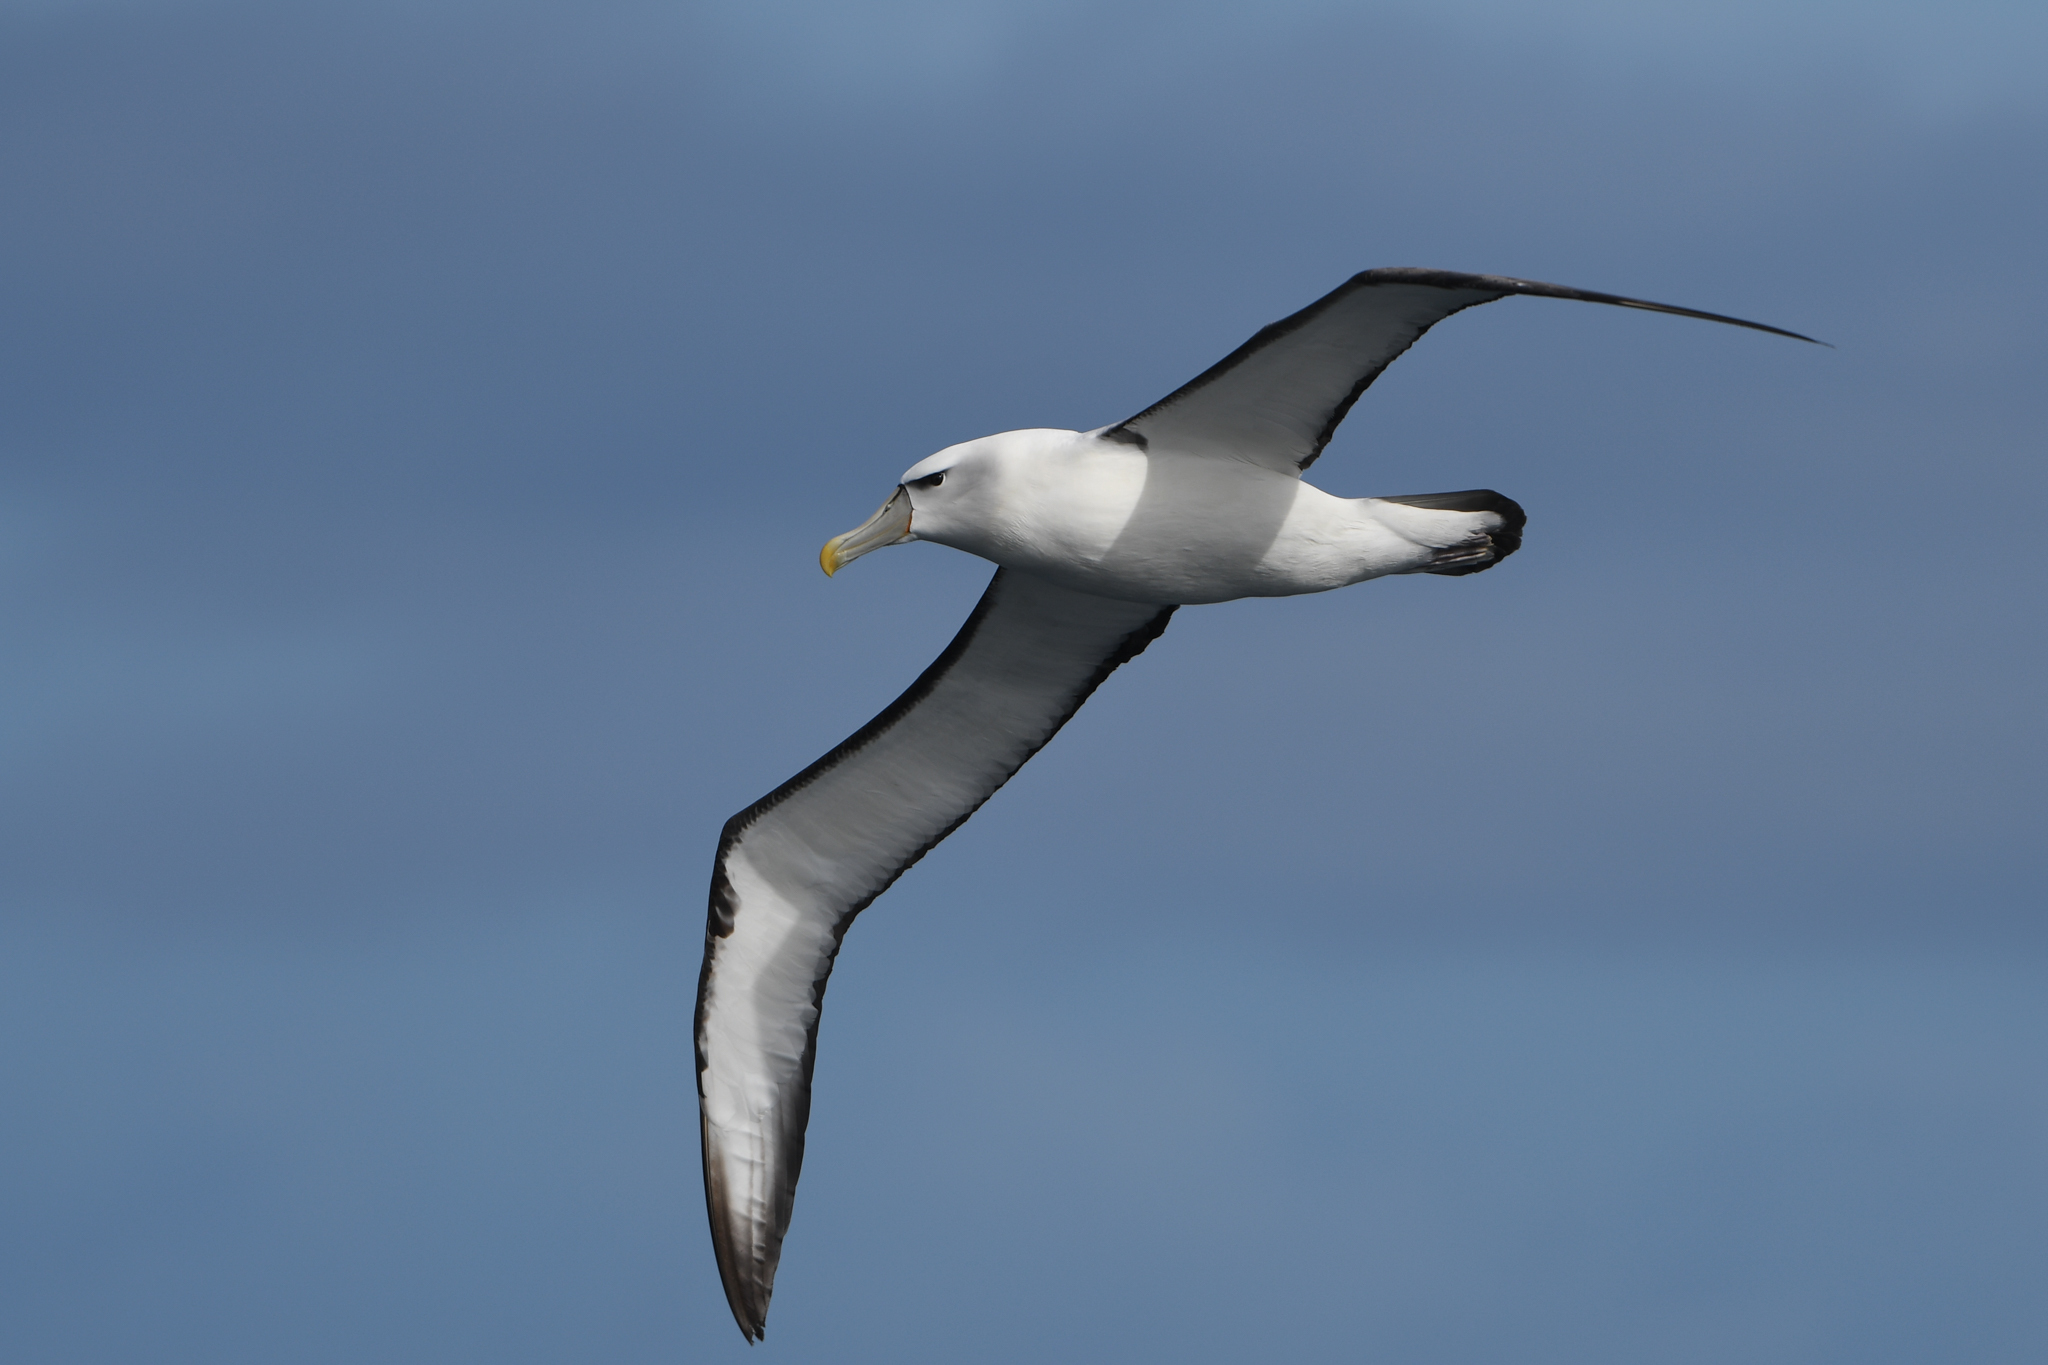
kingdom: Animalia
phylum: Chordata
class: Aves
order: Procellariiformes
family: Diomedeidae
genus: Thalassarche
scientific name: Thalassarche cauta
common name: Shy albatross
